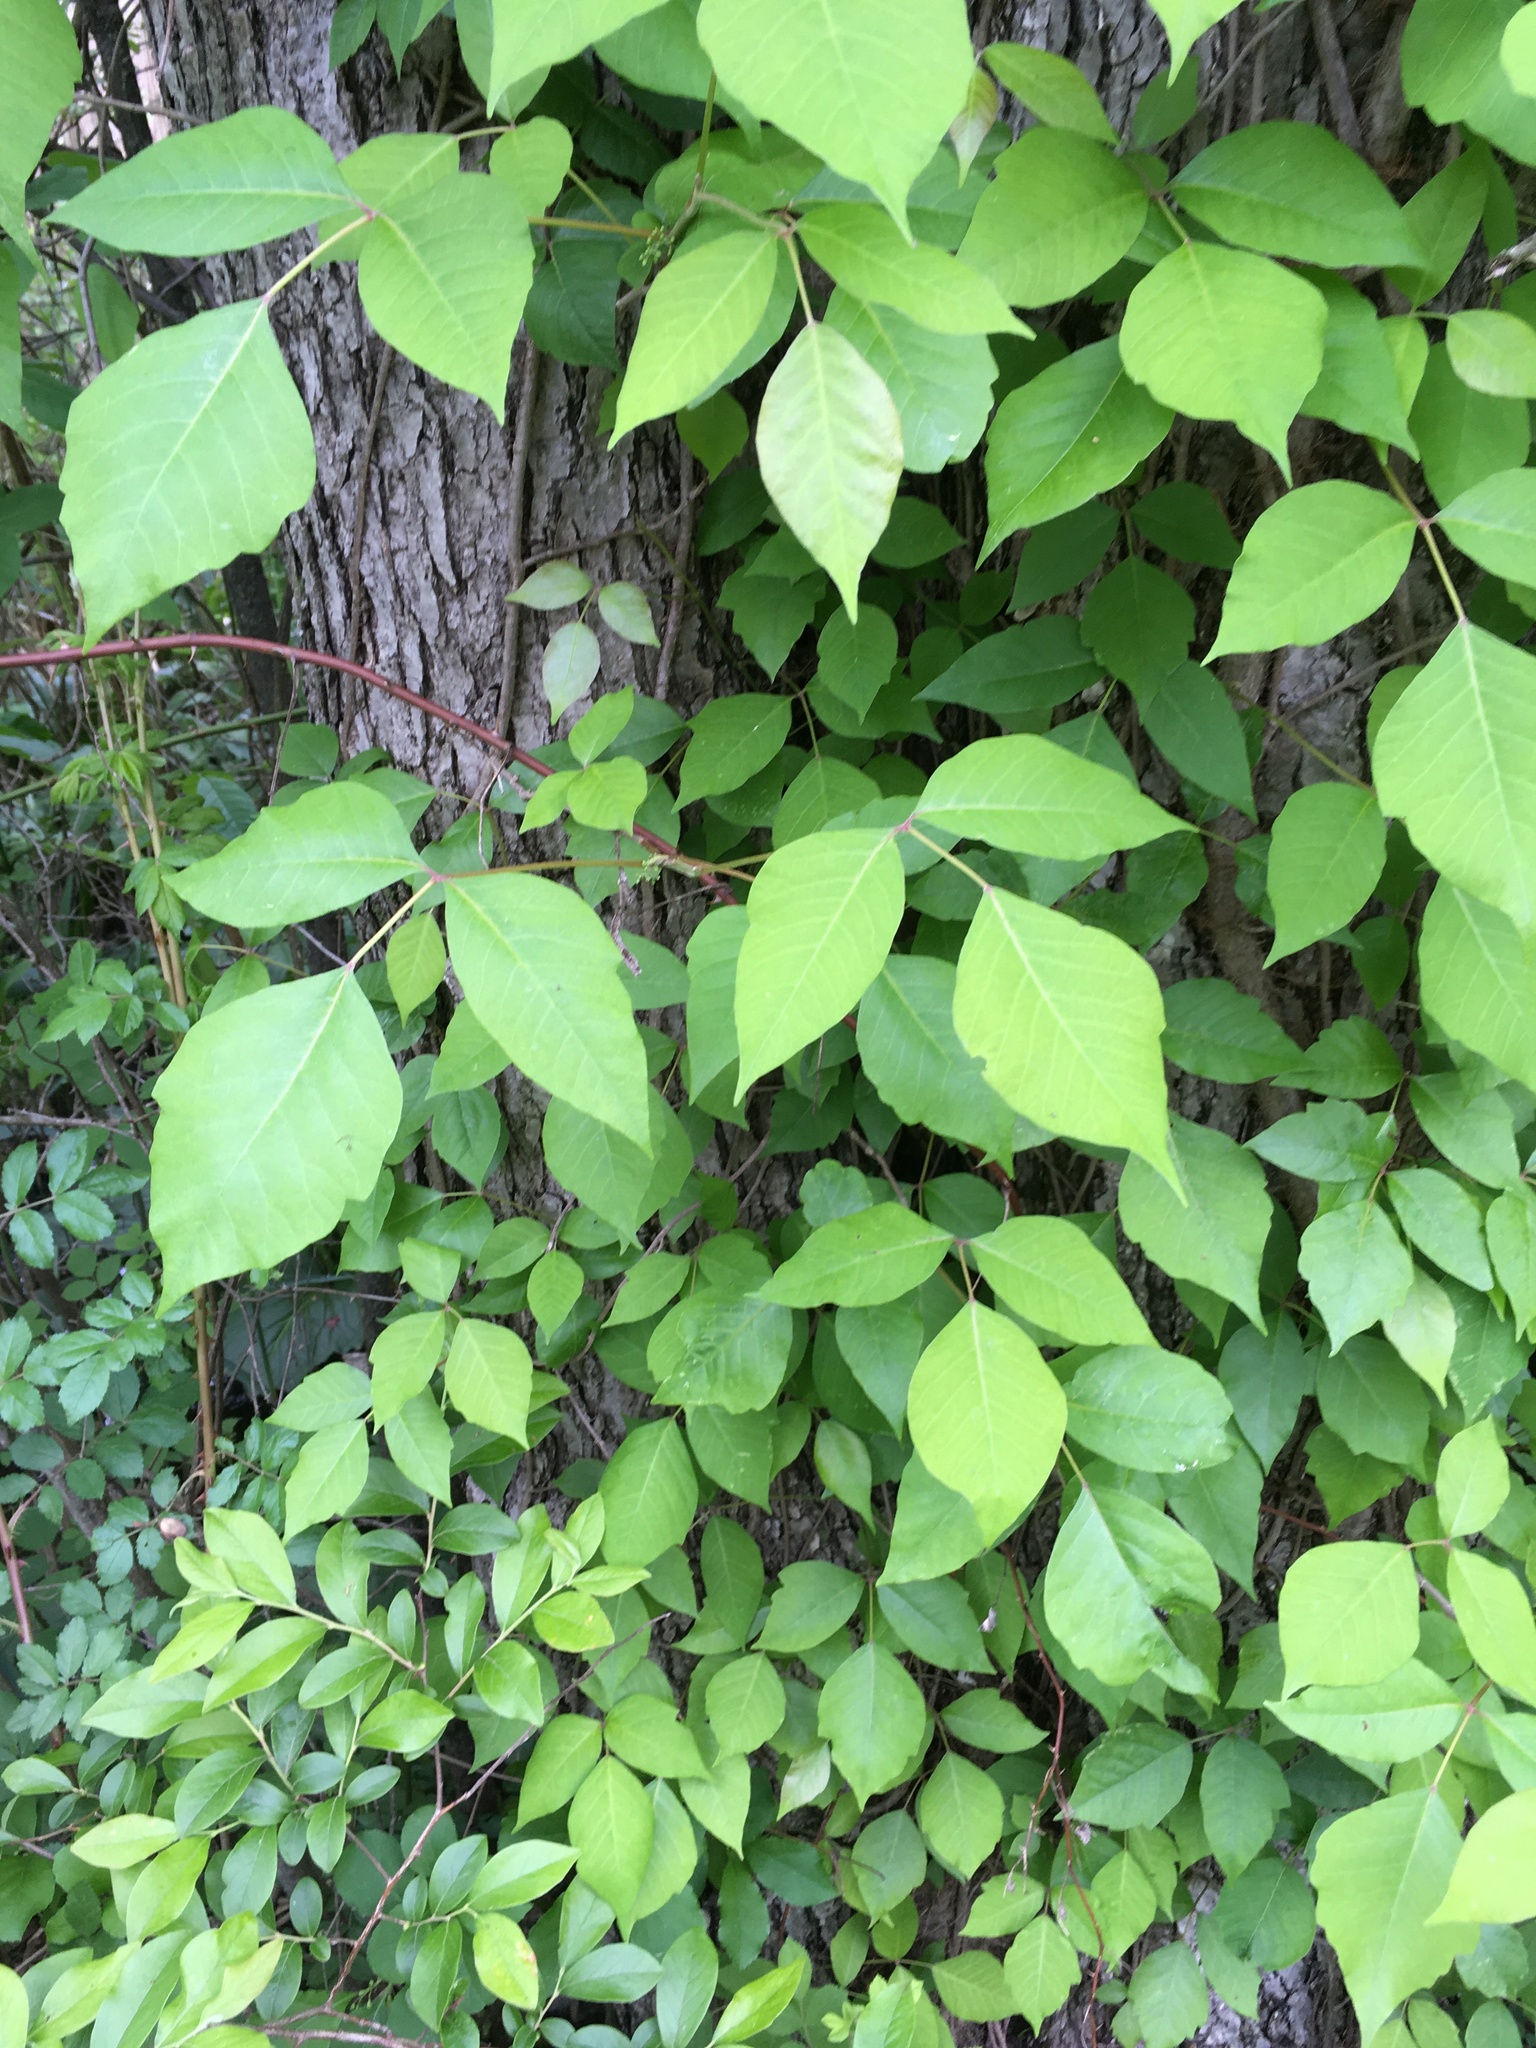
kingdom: Plantae
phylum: Tracheophyta
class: Magnoliopsida
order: Sapindales
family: Anacardiaceae
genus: Toxicodendron
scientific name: Toxicodendron radicans
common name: Poison ivy
